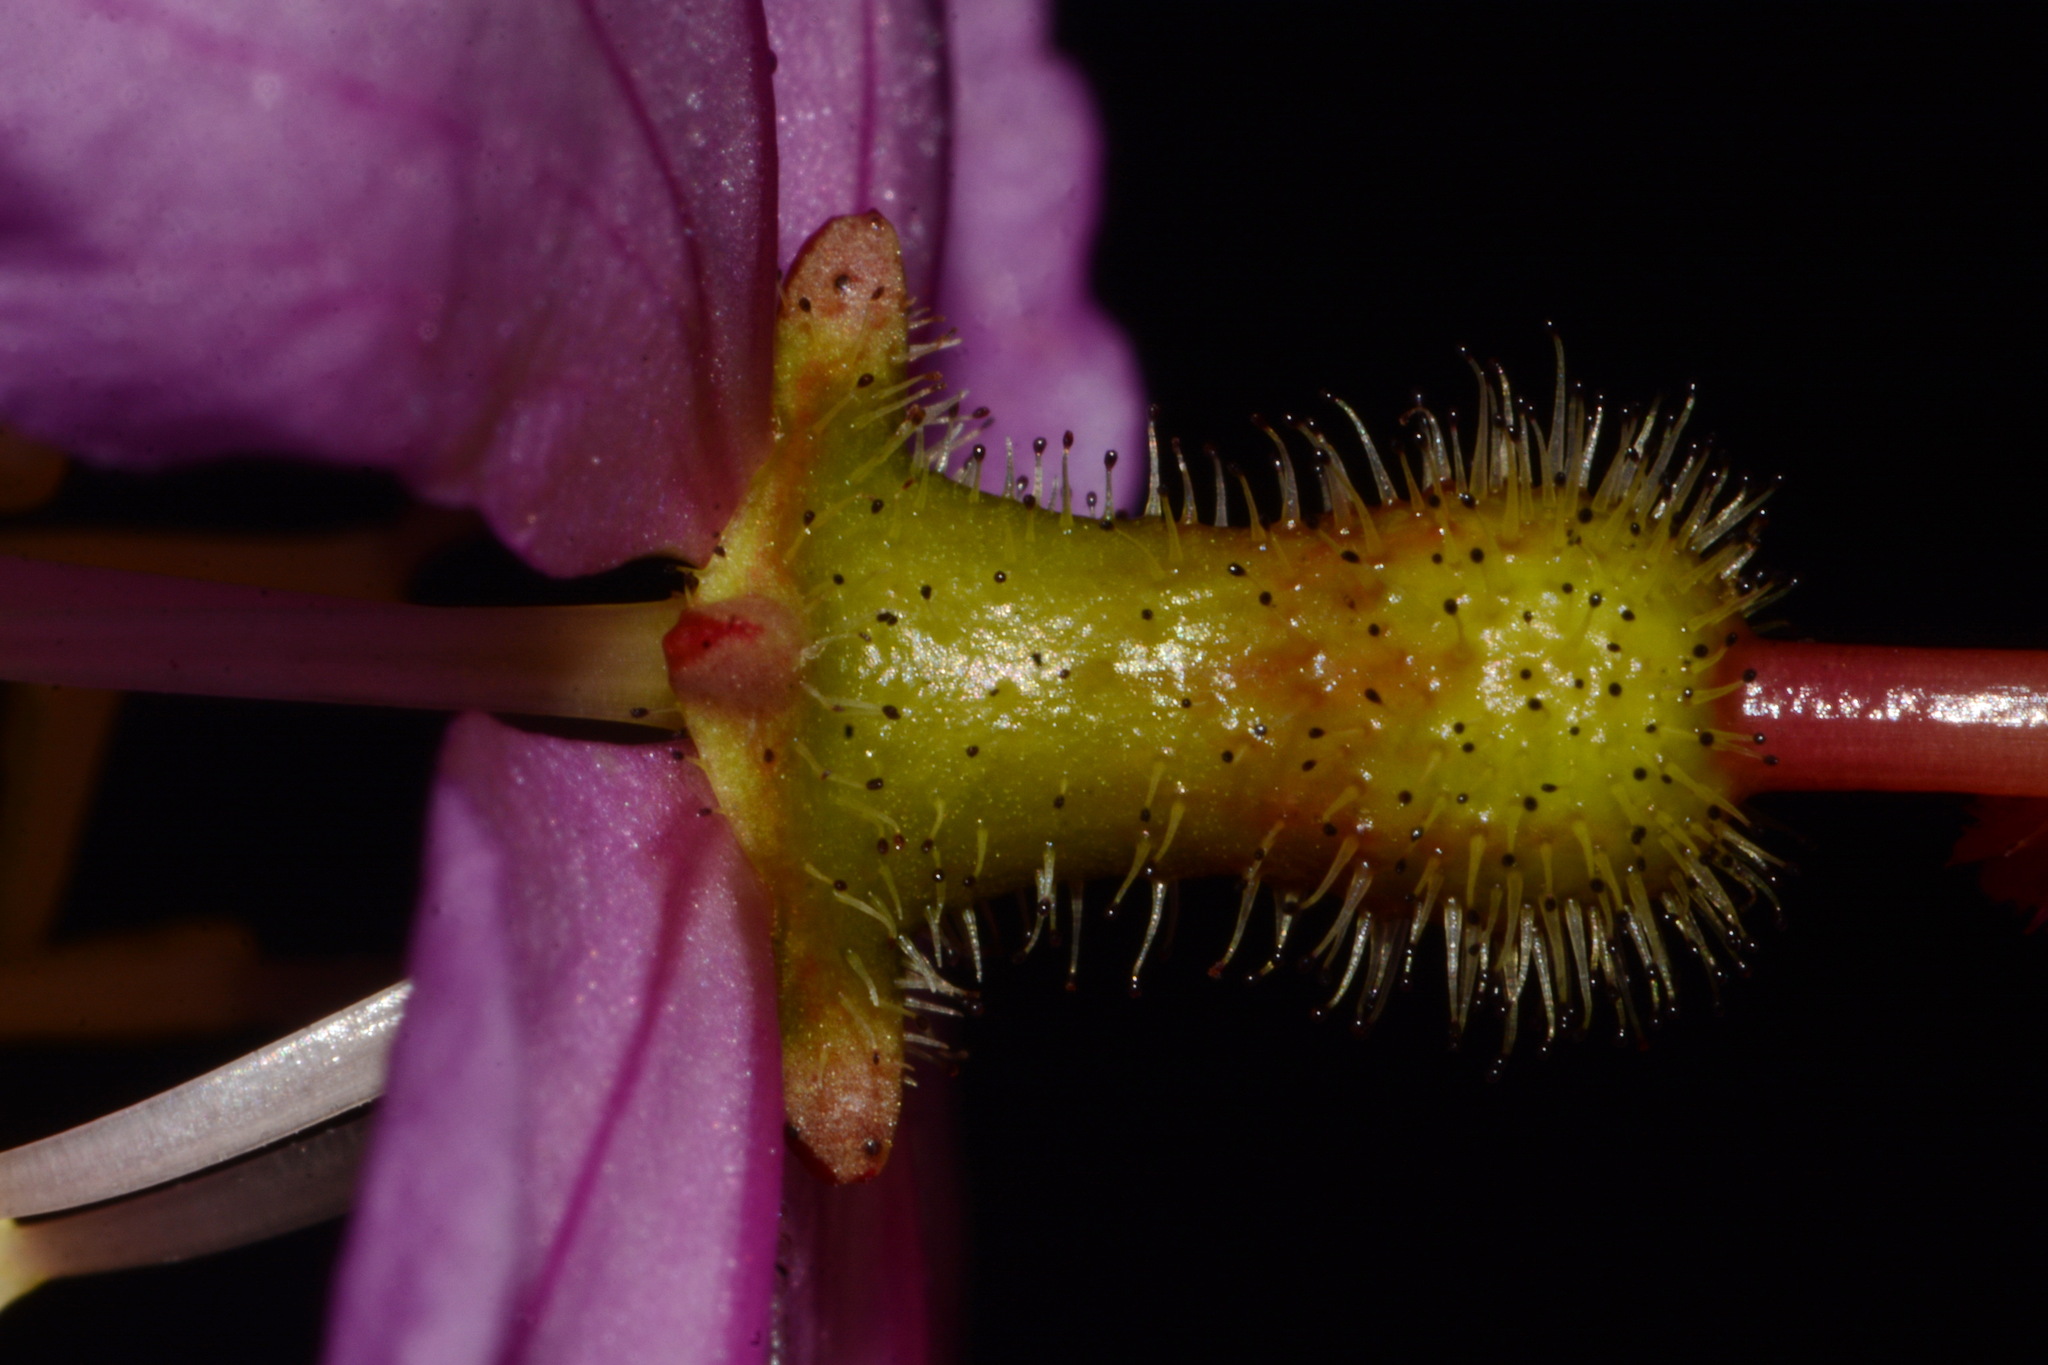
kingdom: Plantae
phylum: Tracheophyta
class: Magnoliopsida
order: Myrtales
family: Melastomataceae
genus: Rhexia
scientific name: Rhexia alifanus
